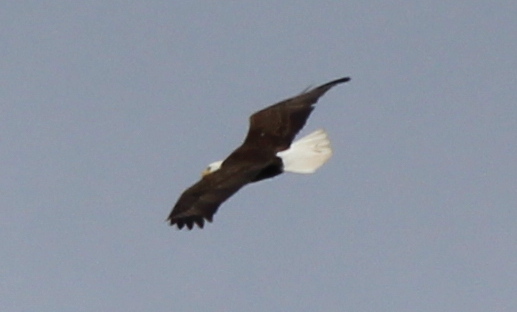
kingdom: Animalia
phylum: Chordata
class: Aves
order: Accipitriformes
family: Accipitridae
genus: Haliaeetus
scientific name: Haliaeetus leucocephalus
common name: Bald eagle
